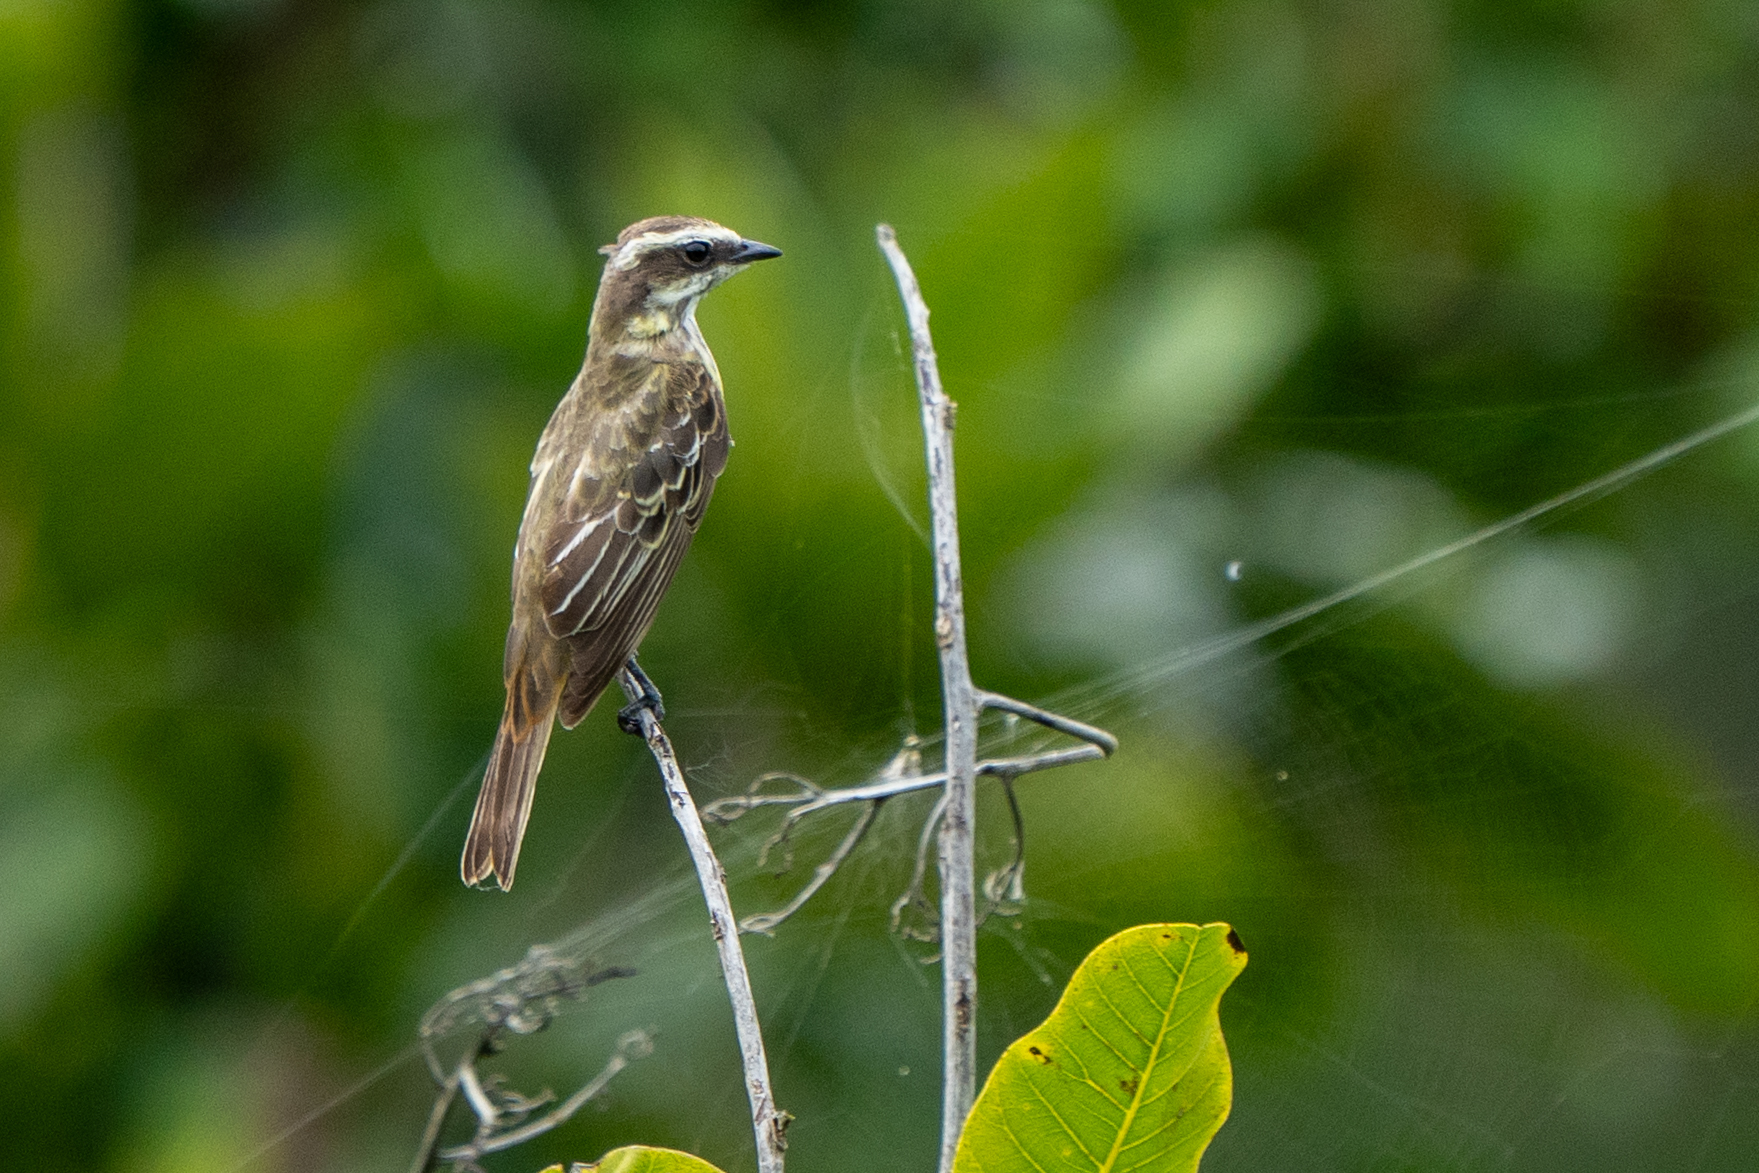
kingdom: Animalia
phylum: Chordata
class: Aves
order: Passeriformes
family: Tyrannidae
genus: Legatus
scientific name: Legatus leucophaius
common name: Piratic flycatcher
